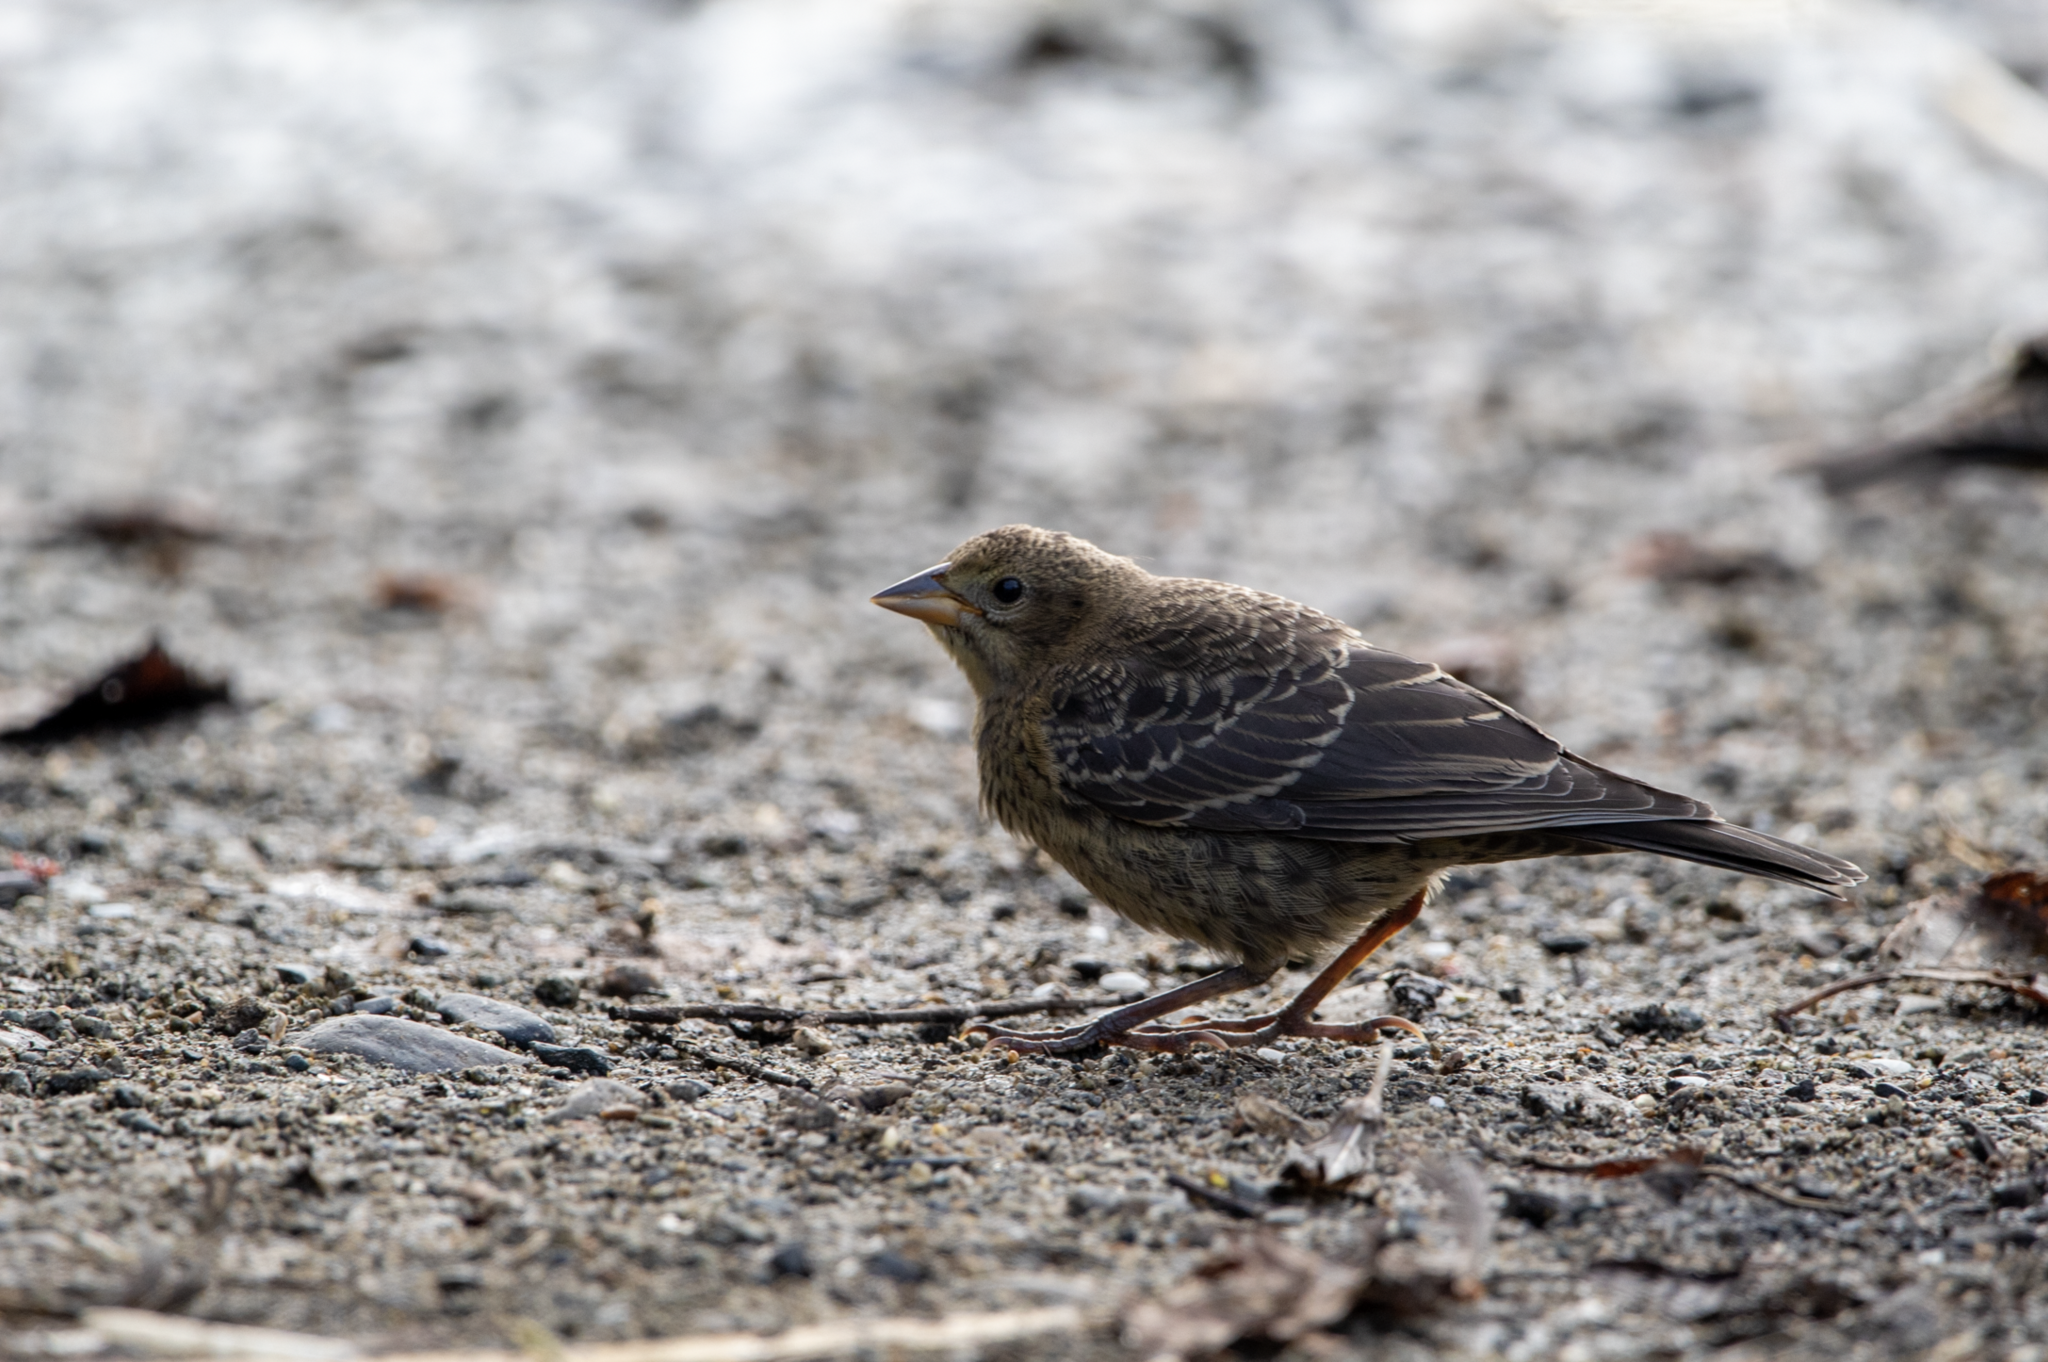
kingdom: Animalia
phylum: Chordata
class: Aves
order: Passeriformes
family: Icteridae
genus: Molothrus
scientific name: Molothrus ater
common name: Brown-headed cowbird
